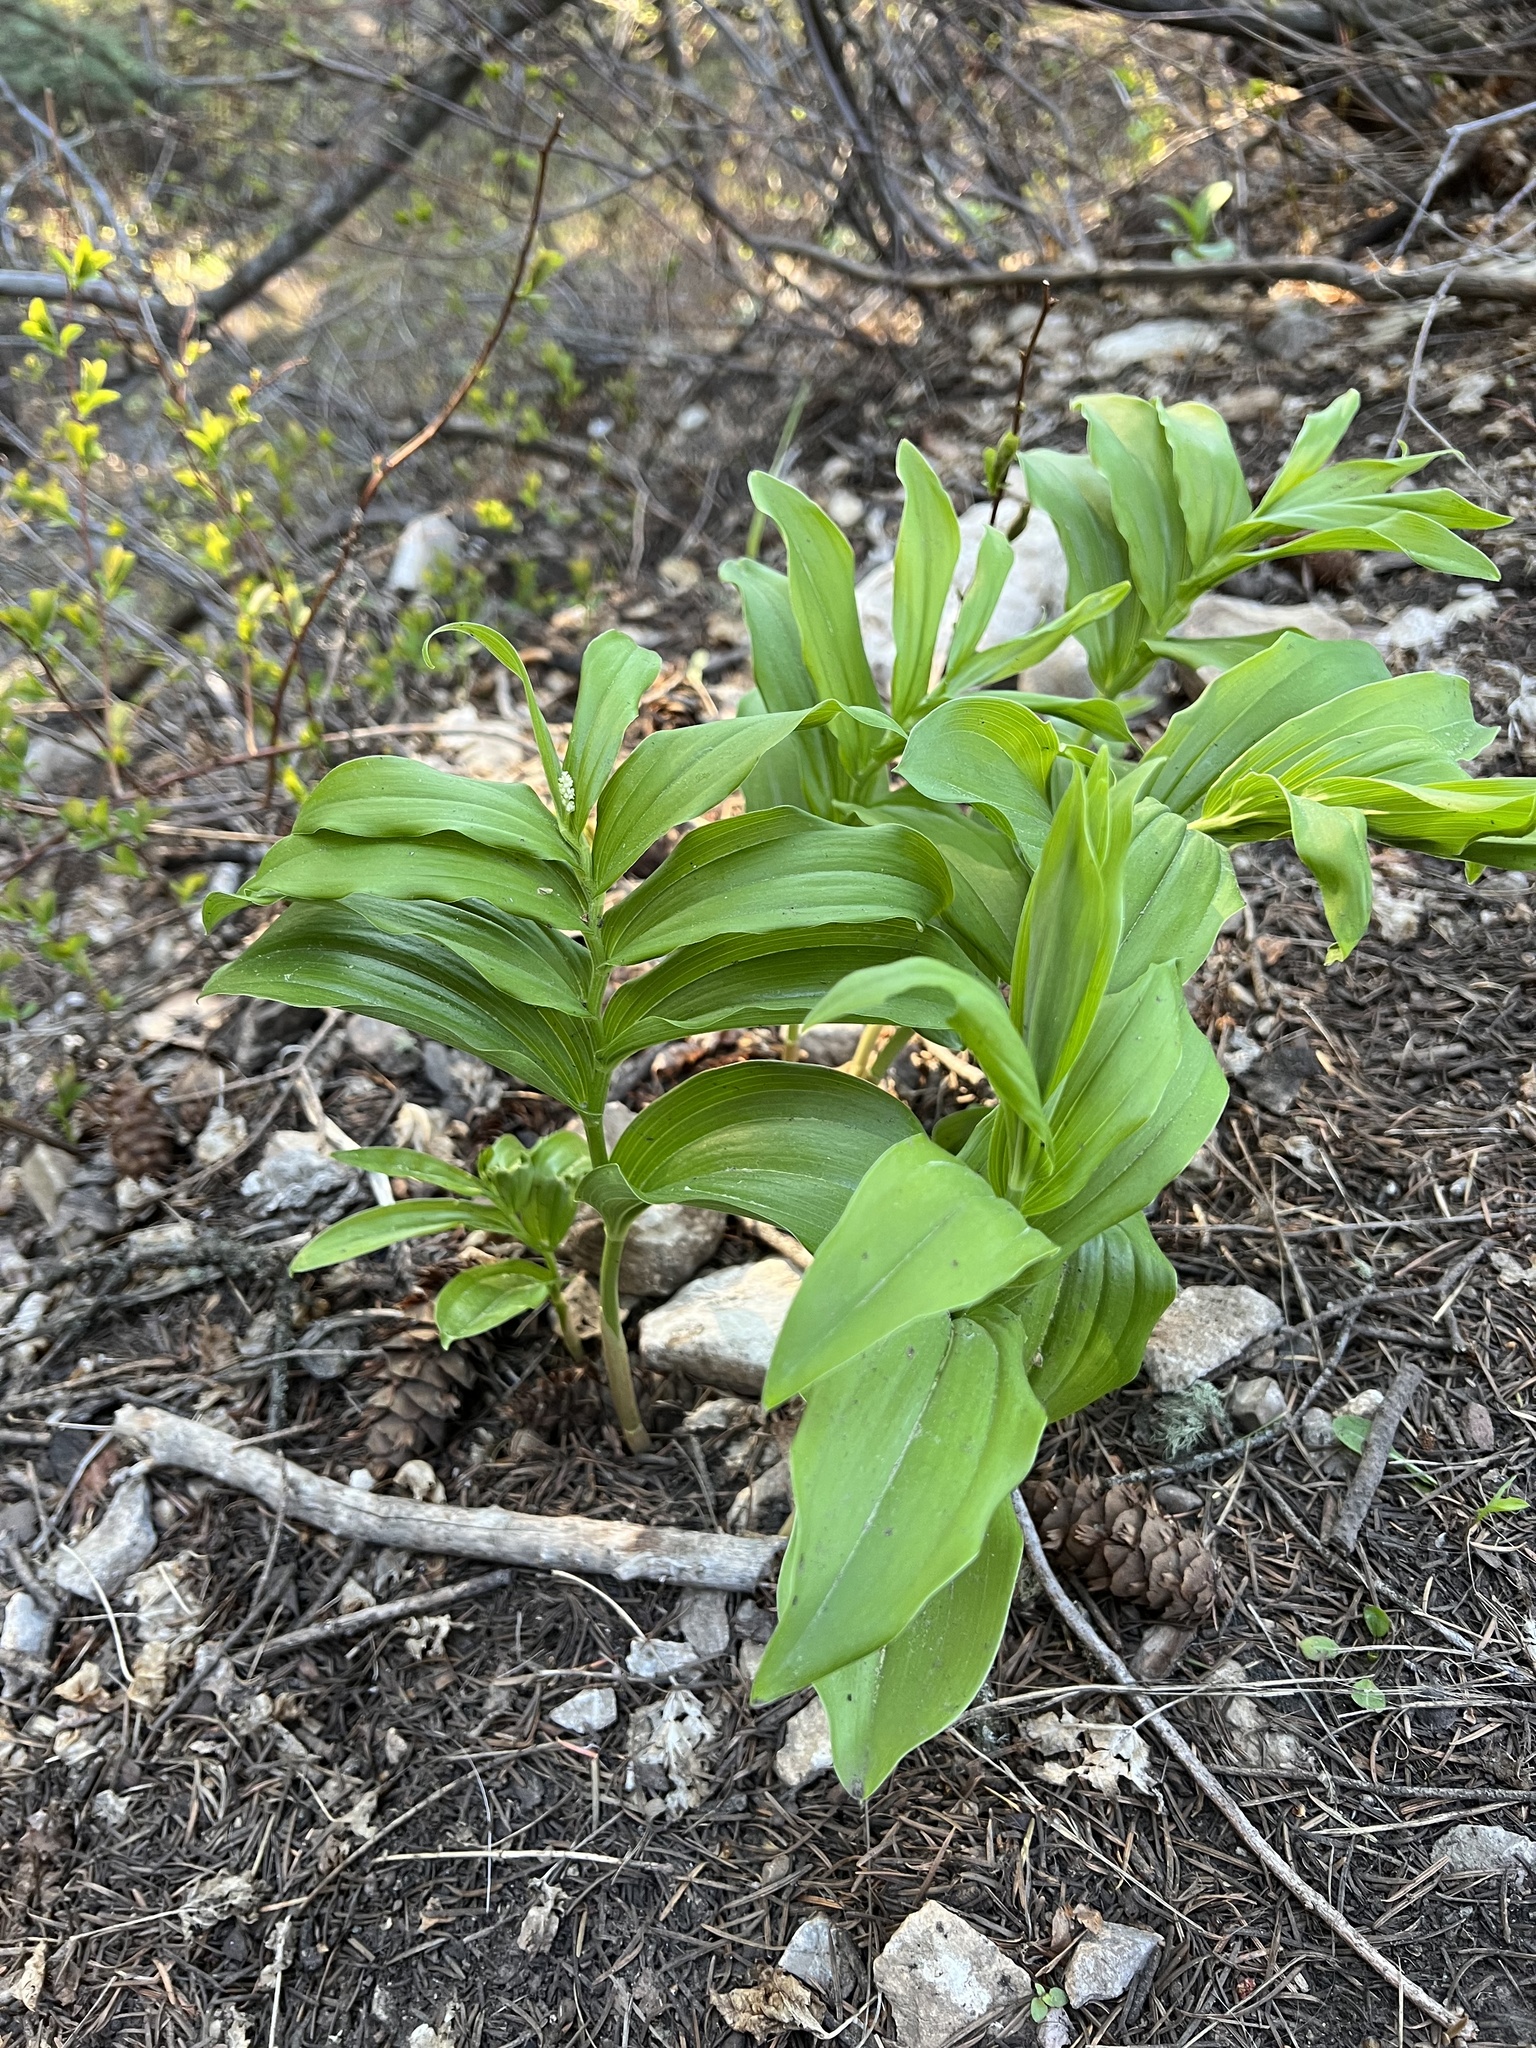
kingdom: Plantae
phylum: Tracheophyta
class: Liliopsida
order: Asparagales
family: Asparagaceae
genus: Maianthemum
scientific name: Maianthemum racemosum
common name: False spikenard
